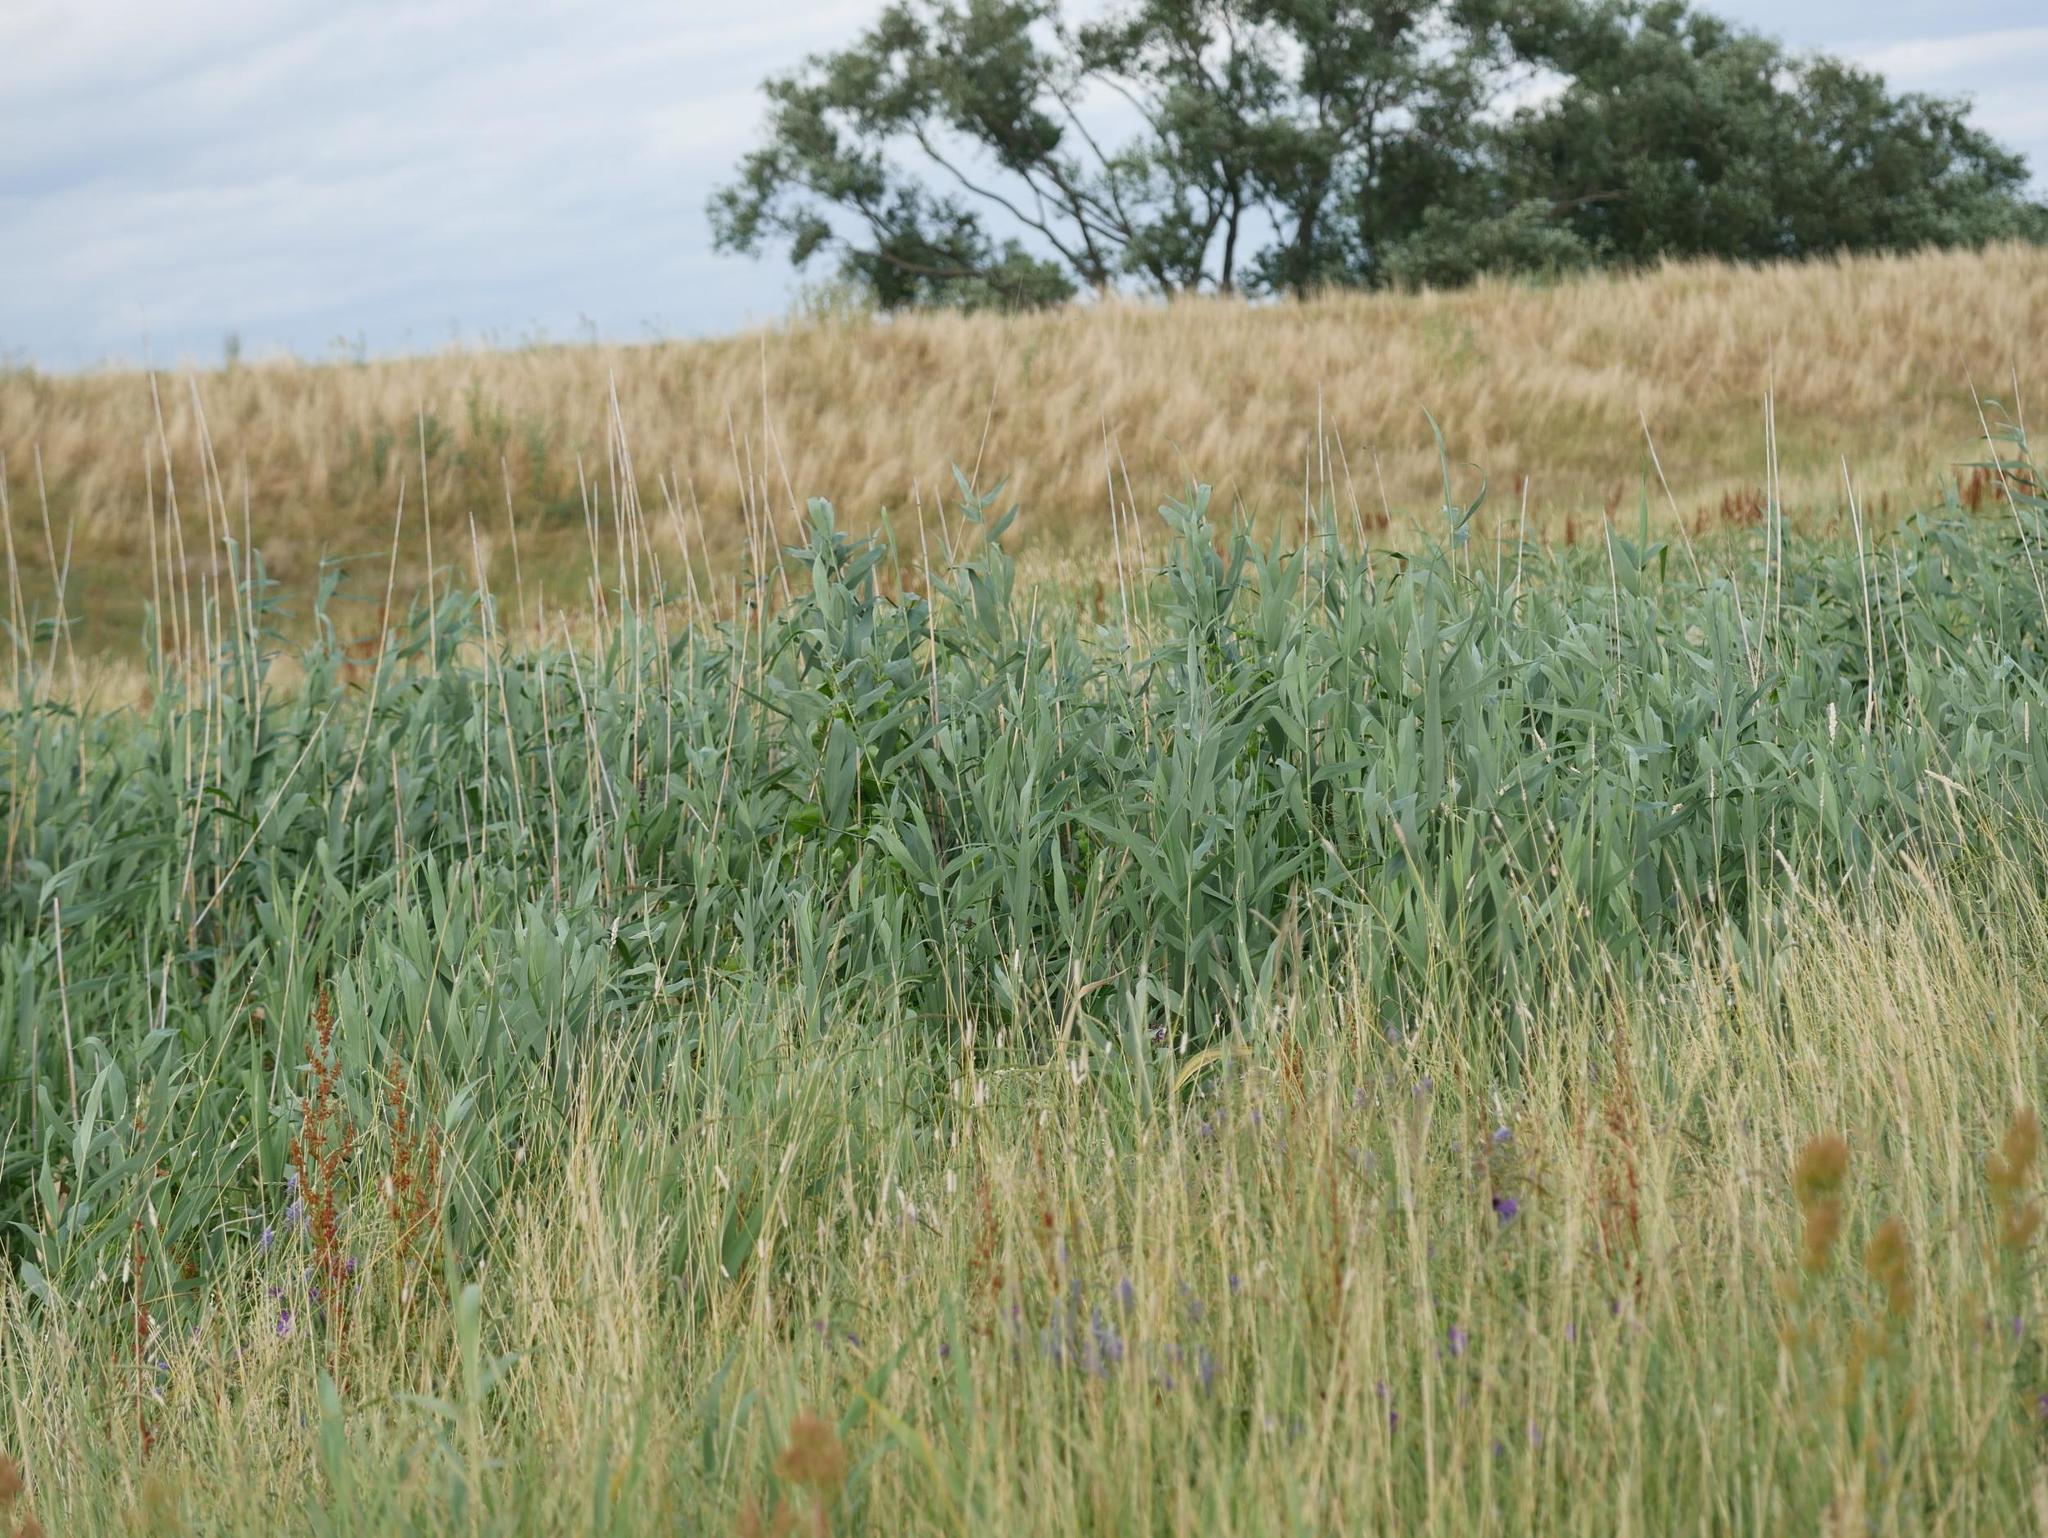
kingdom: Plantae
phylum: Tracheophyta
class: Liliopsida
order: Poales
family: Poaceae
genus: Phragmites
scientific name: Phragmites australis
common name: Common reed
